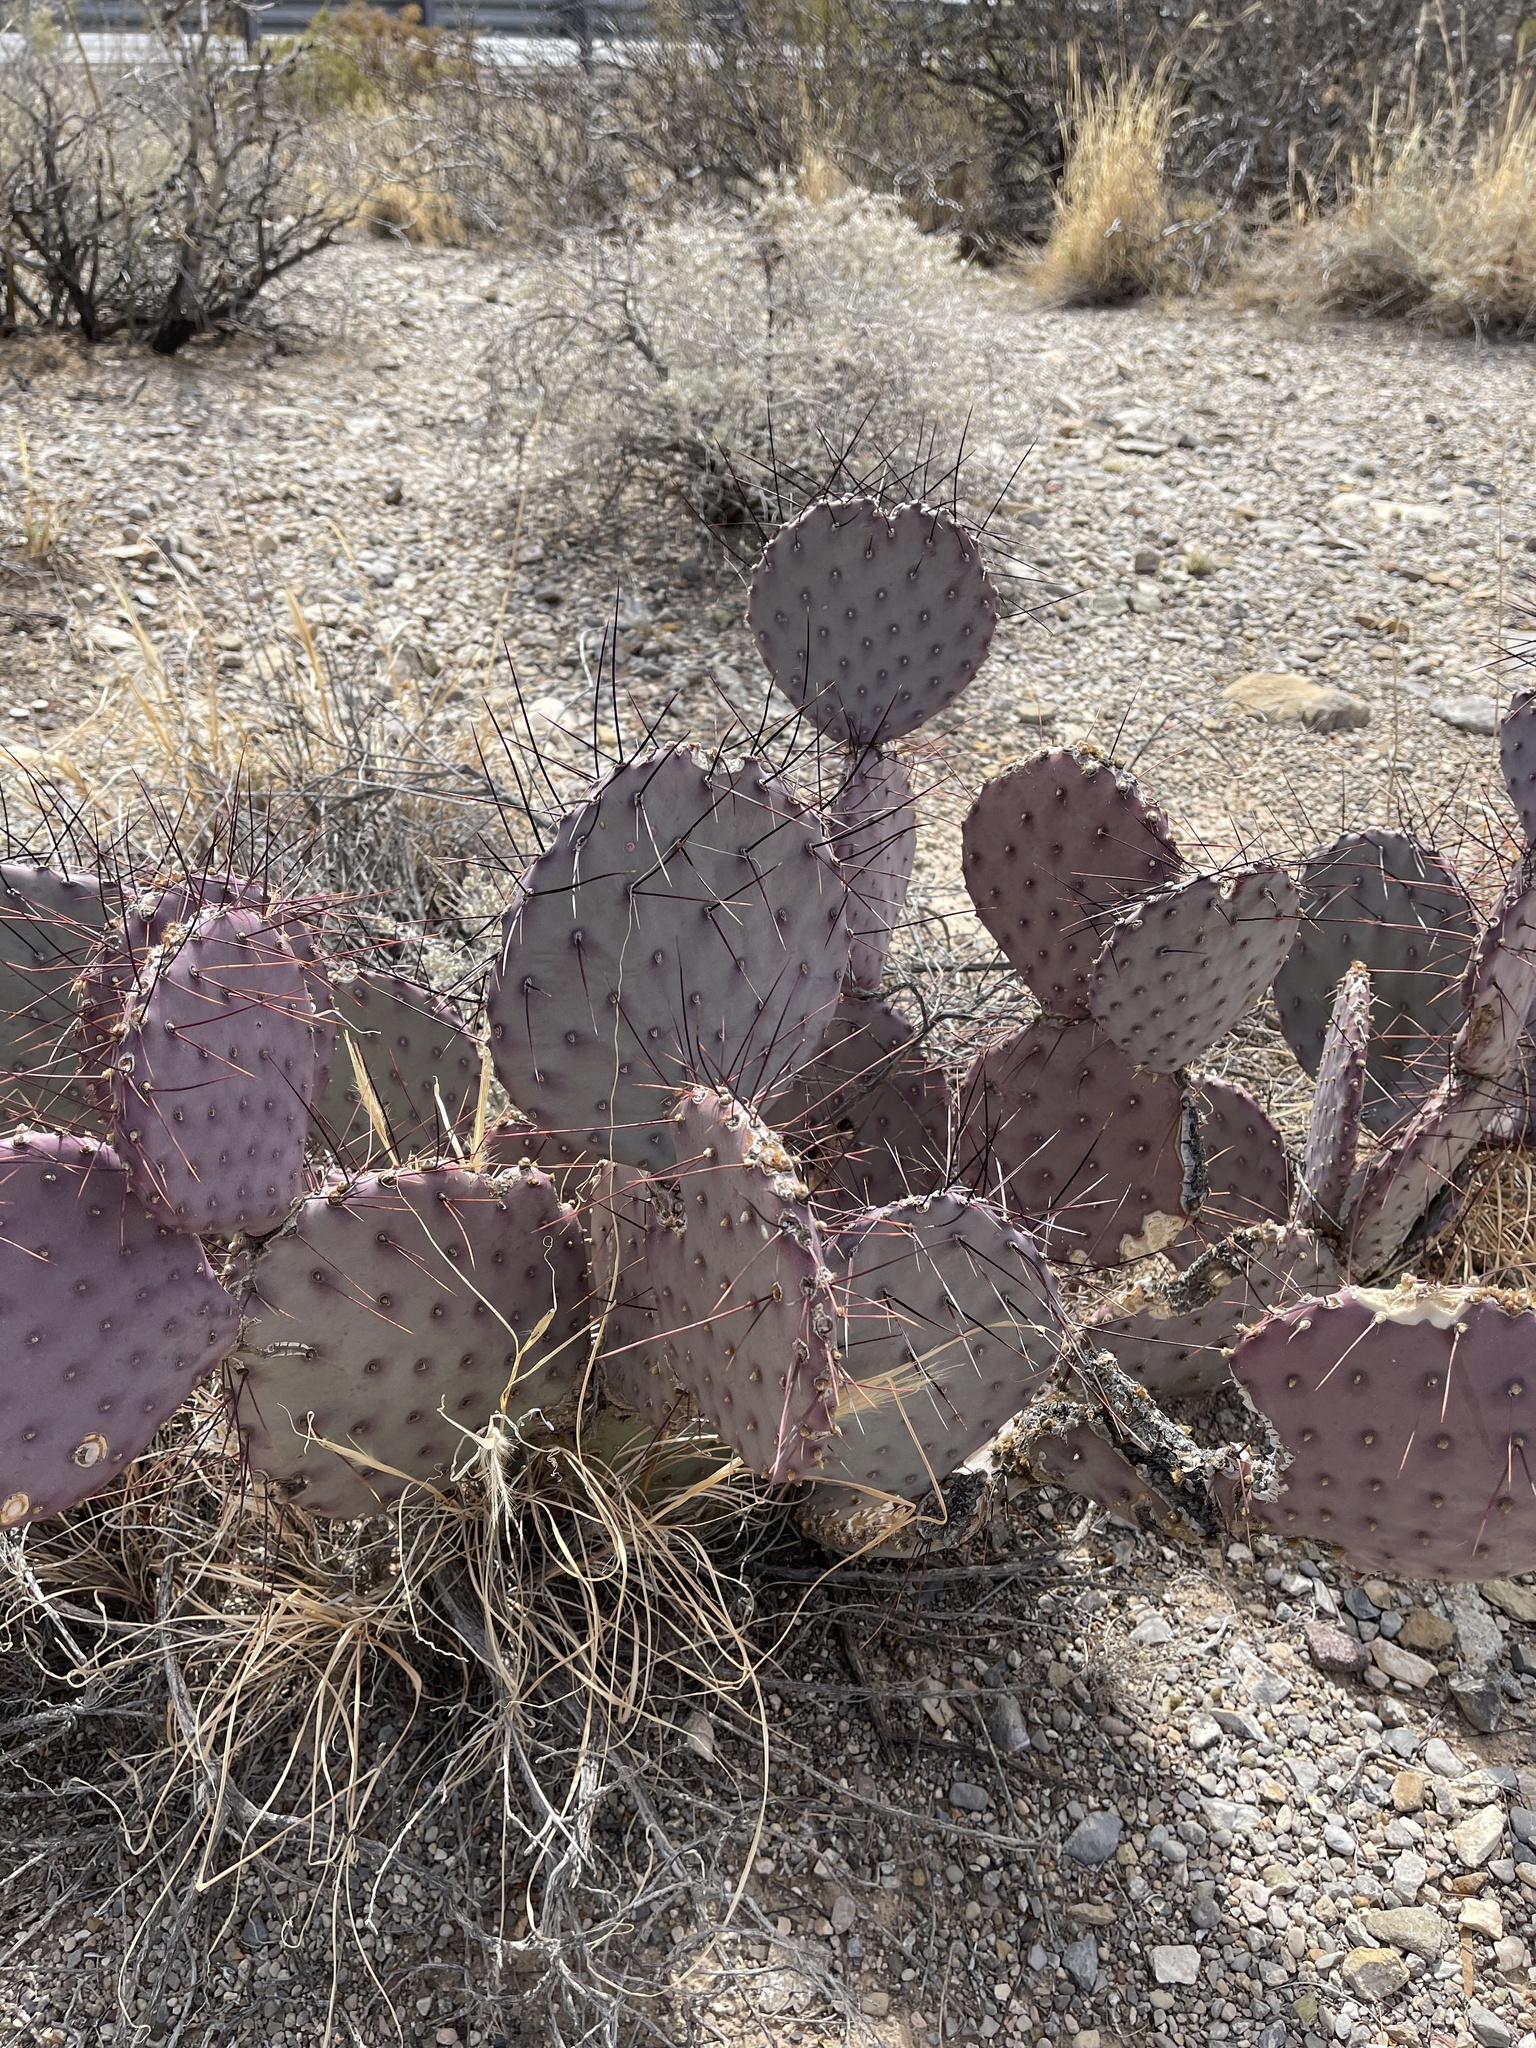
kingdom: Plantae
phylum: Tracheophyta
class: Magnoliopsida
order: Caryophyllales
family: Cactaceae
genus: Opuntia
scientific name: Opuntia macrocentra
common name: Purple prickly-pear
